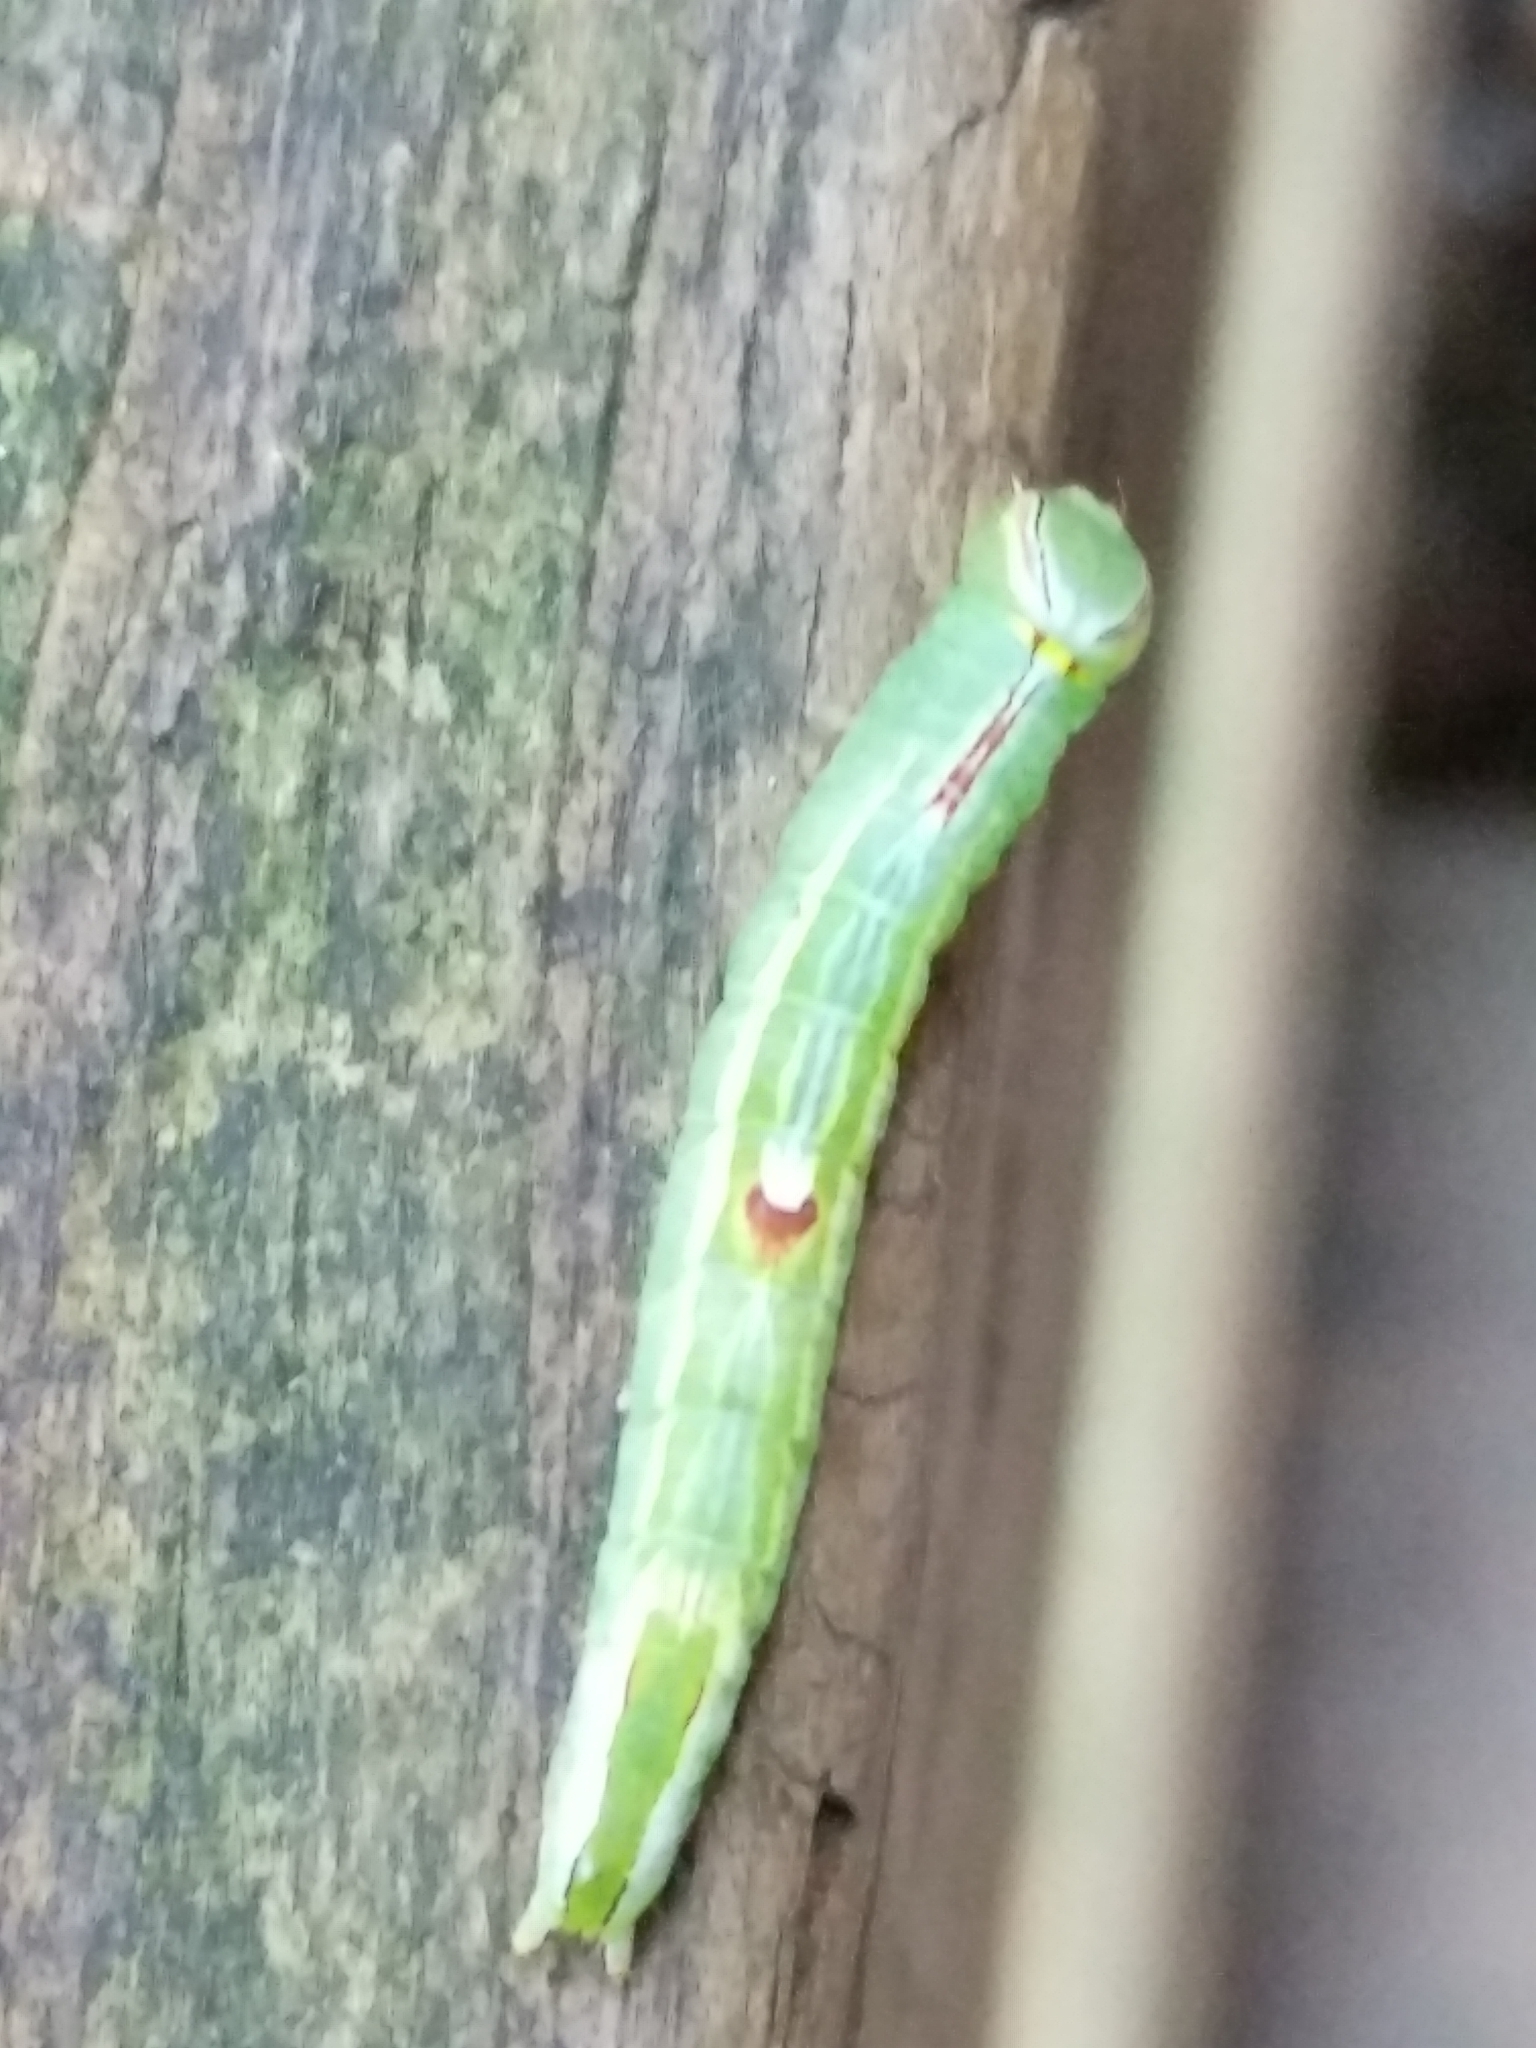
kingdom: Animalia
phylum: Arthropoda
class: Insecta
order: Lepidoptera
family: Notodontidae
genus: Disphragis
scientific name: Disphragis Cecrita guttivitta
